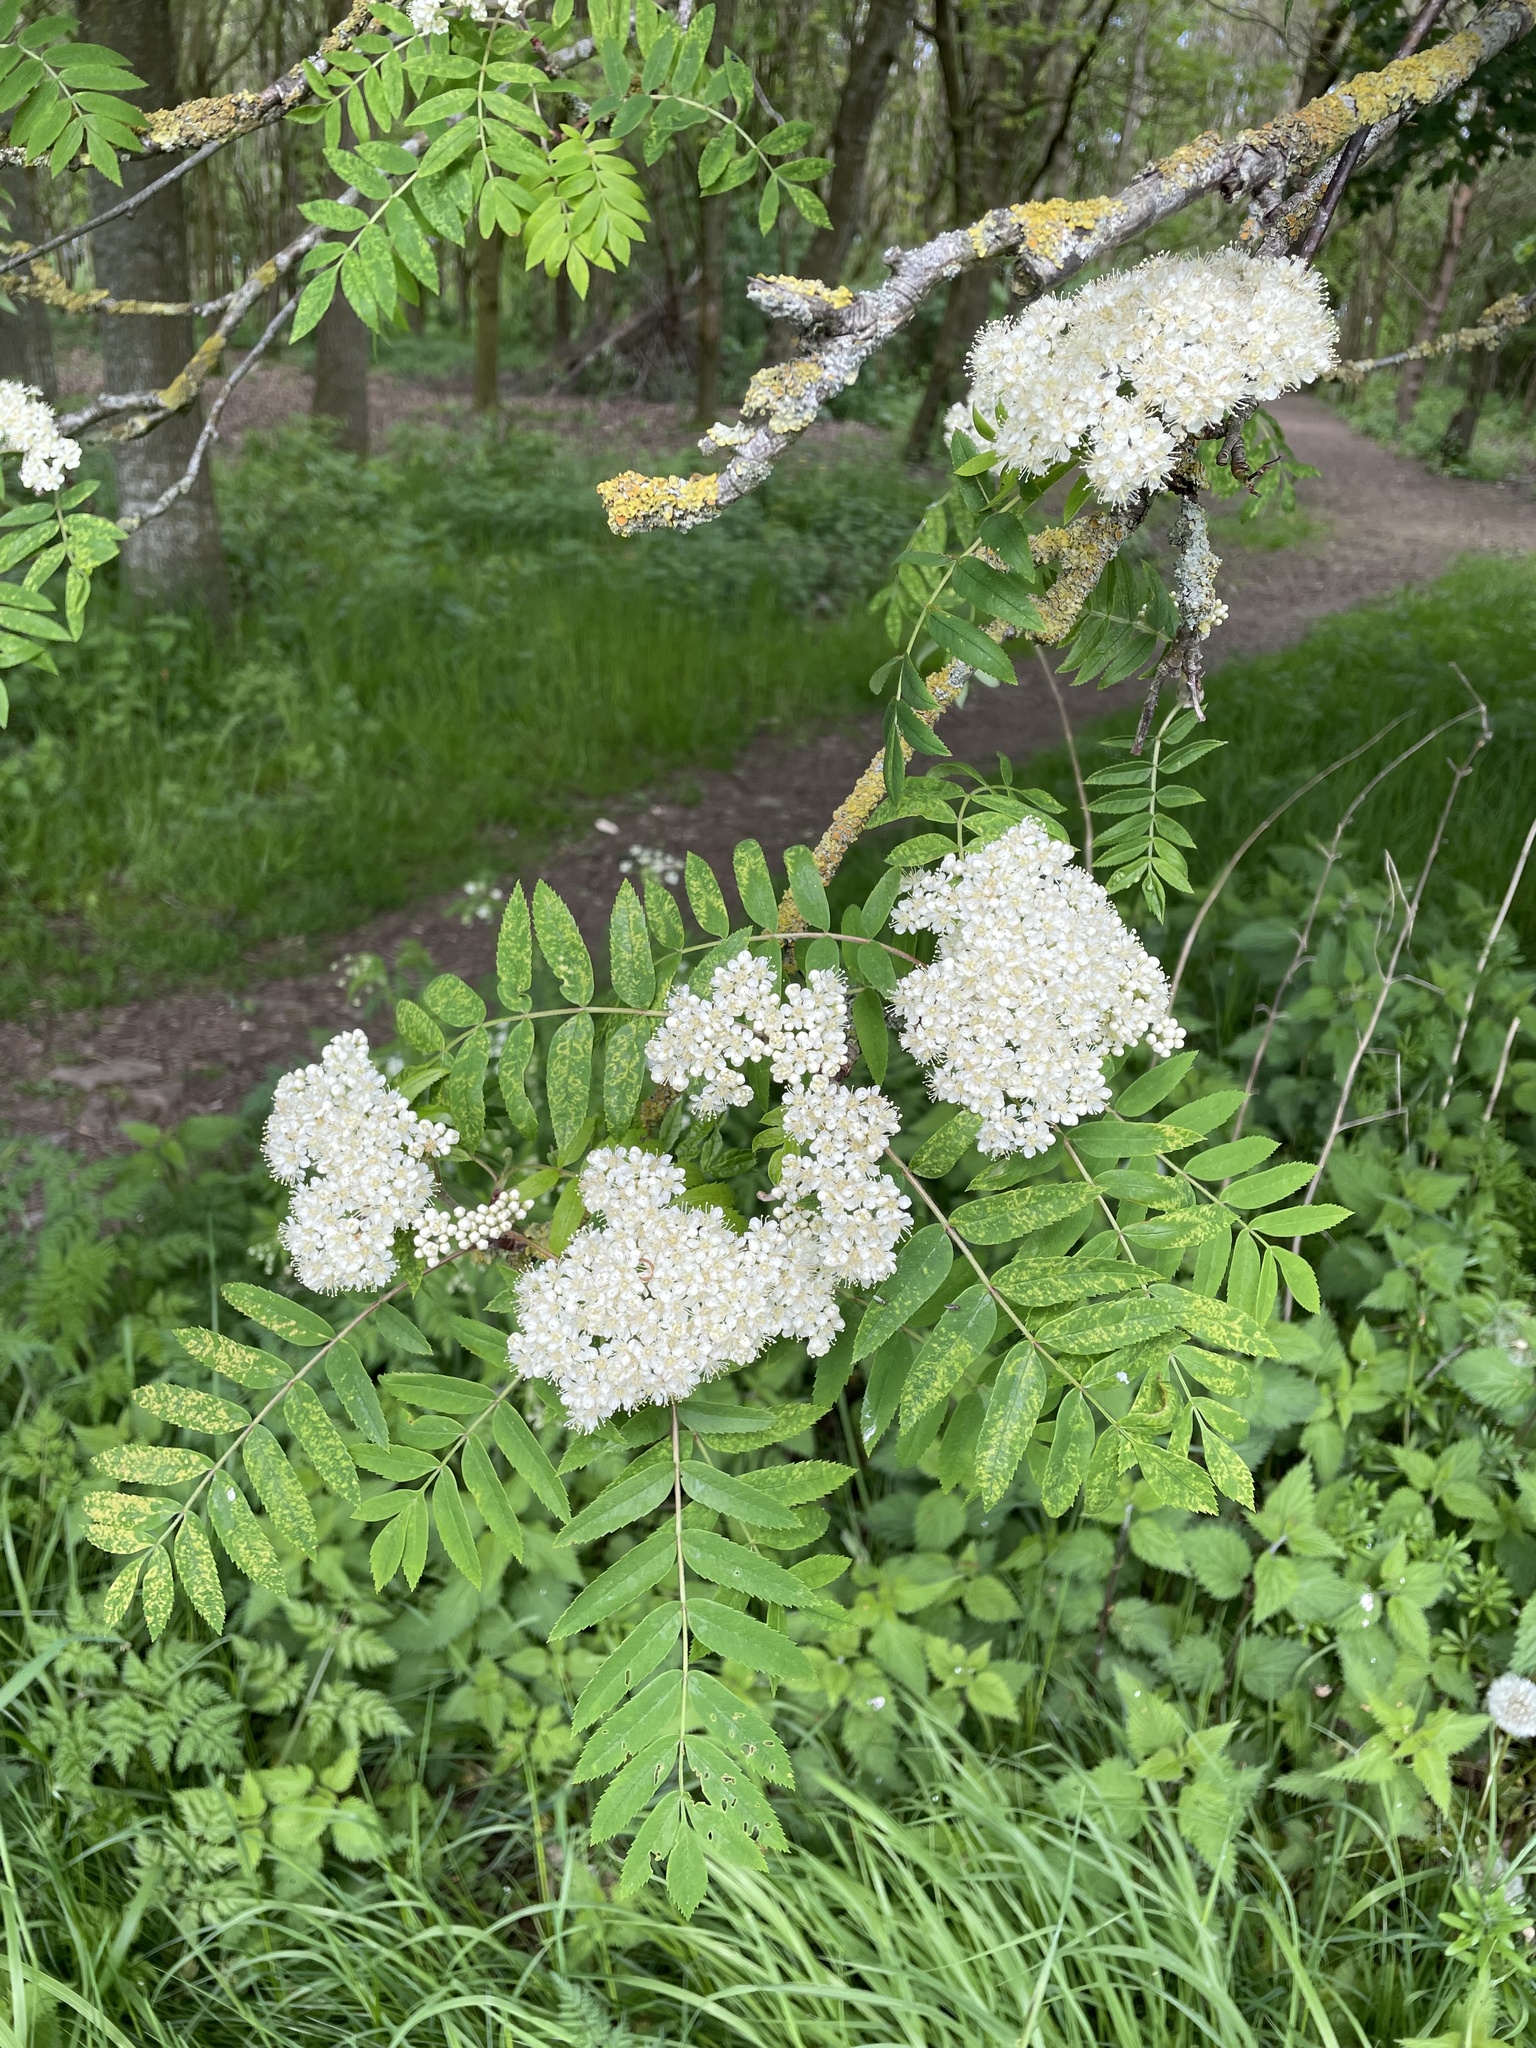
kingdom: Plantae
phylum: Tracheophyta
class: Magnoliopsida
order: Rosales
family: Rosaceae
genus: Sorbus
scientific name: Sorbus aucuparia
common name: Rowan
